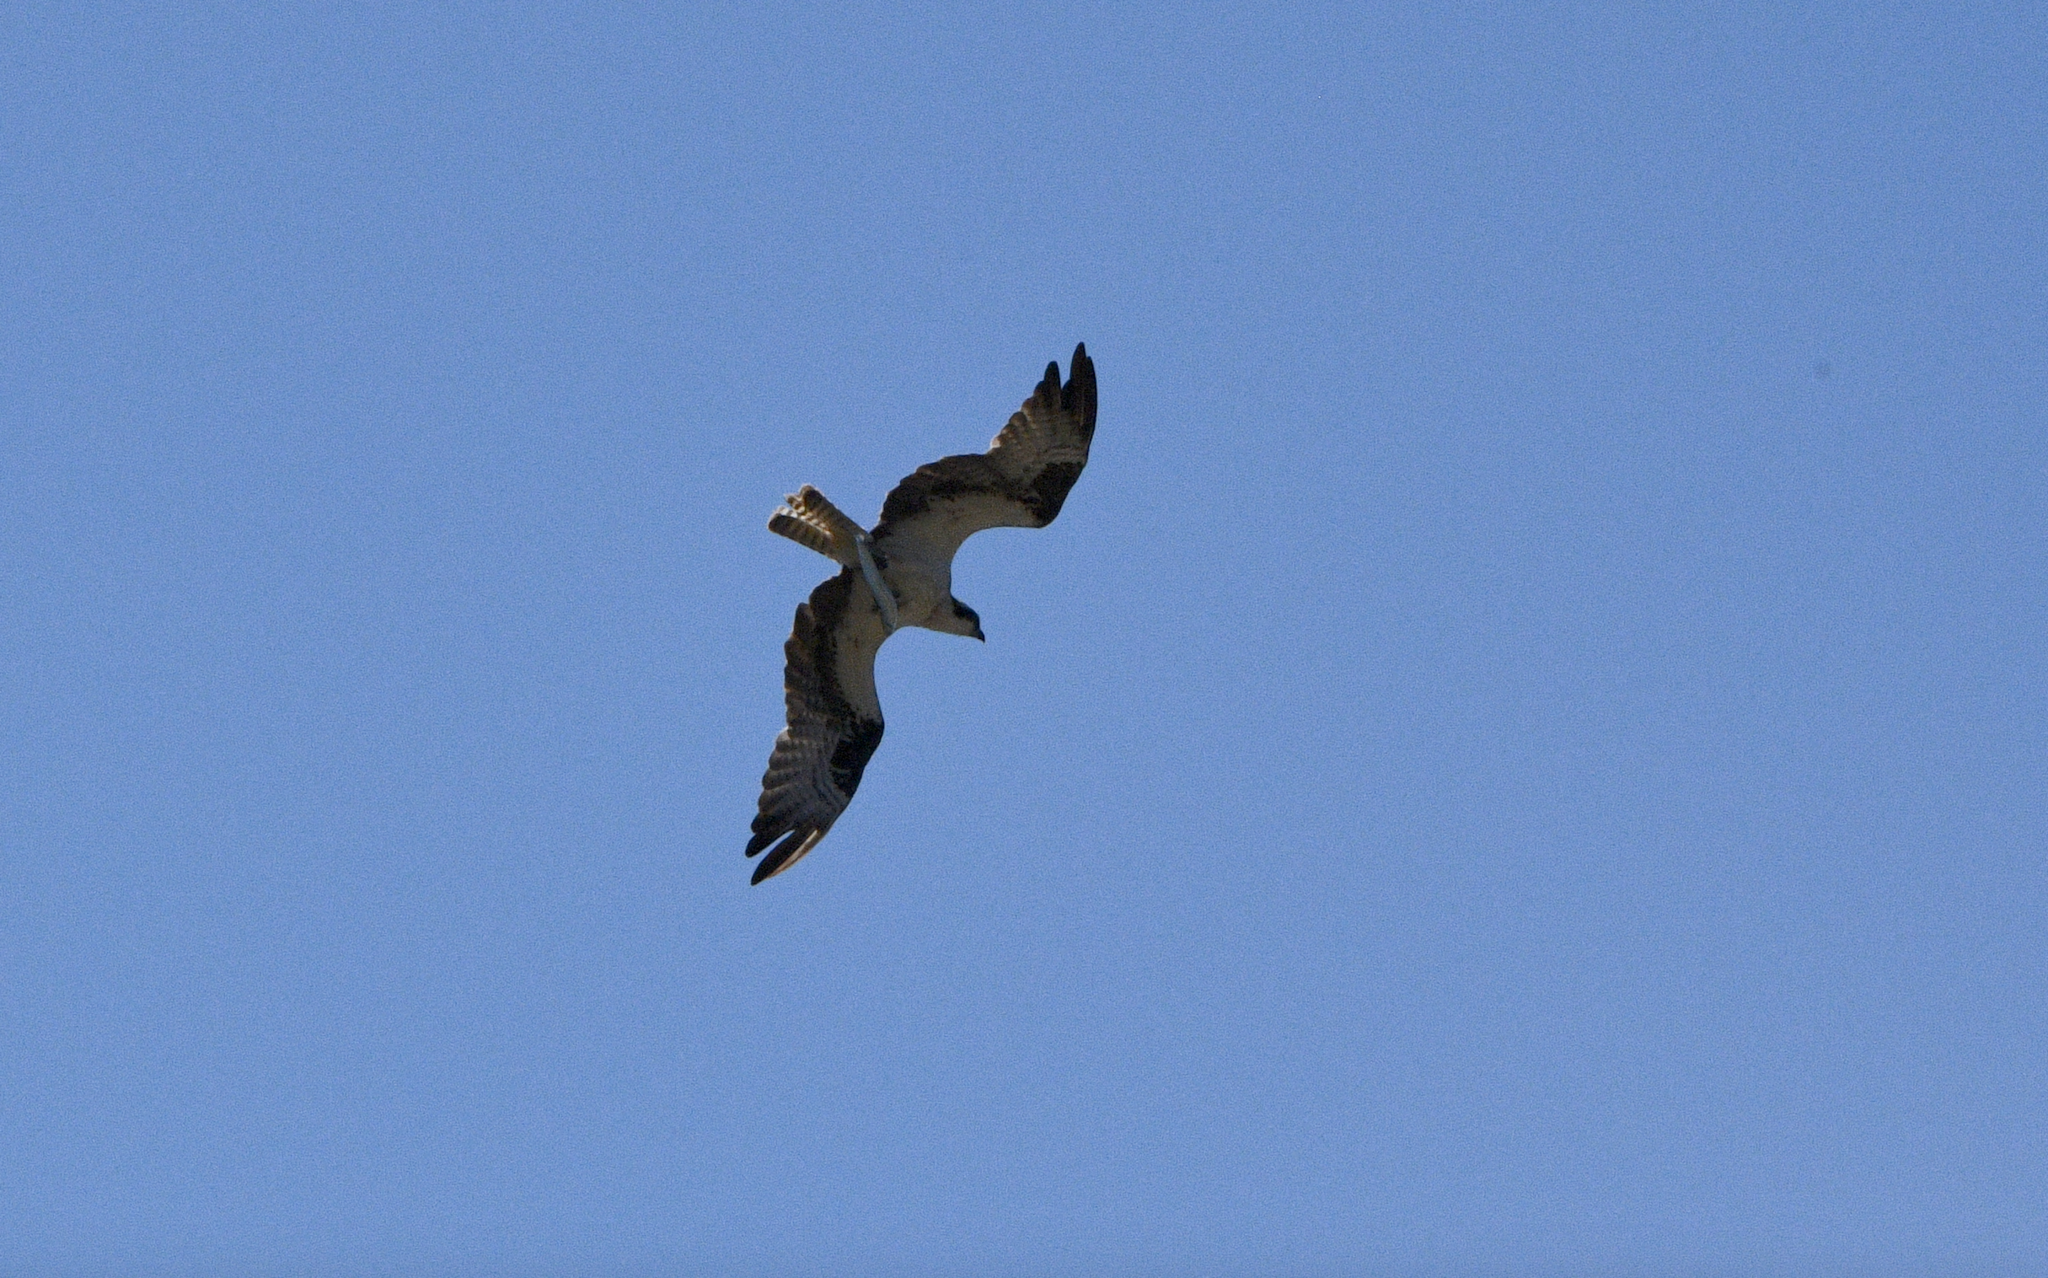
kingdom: Animalia
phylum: Chordata
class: Aves
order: Accipitriformes
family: Pandionidae
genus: Pandion
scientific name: Pandion haliaetus
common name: Osprey
